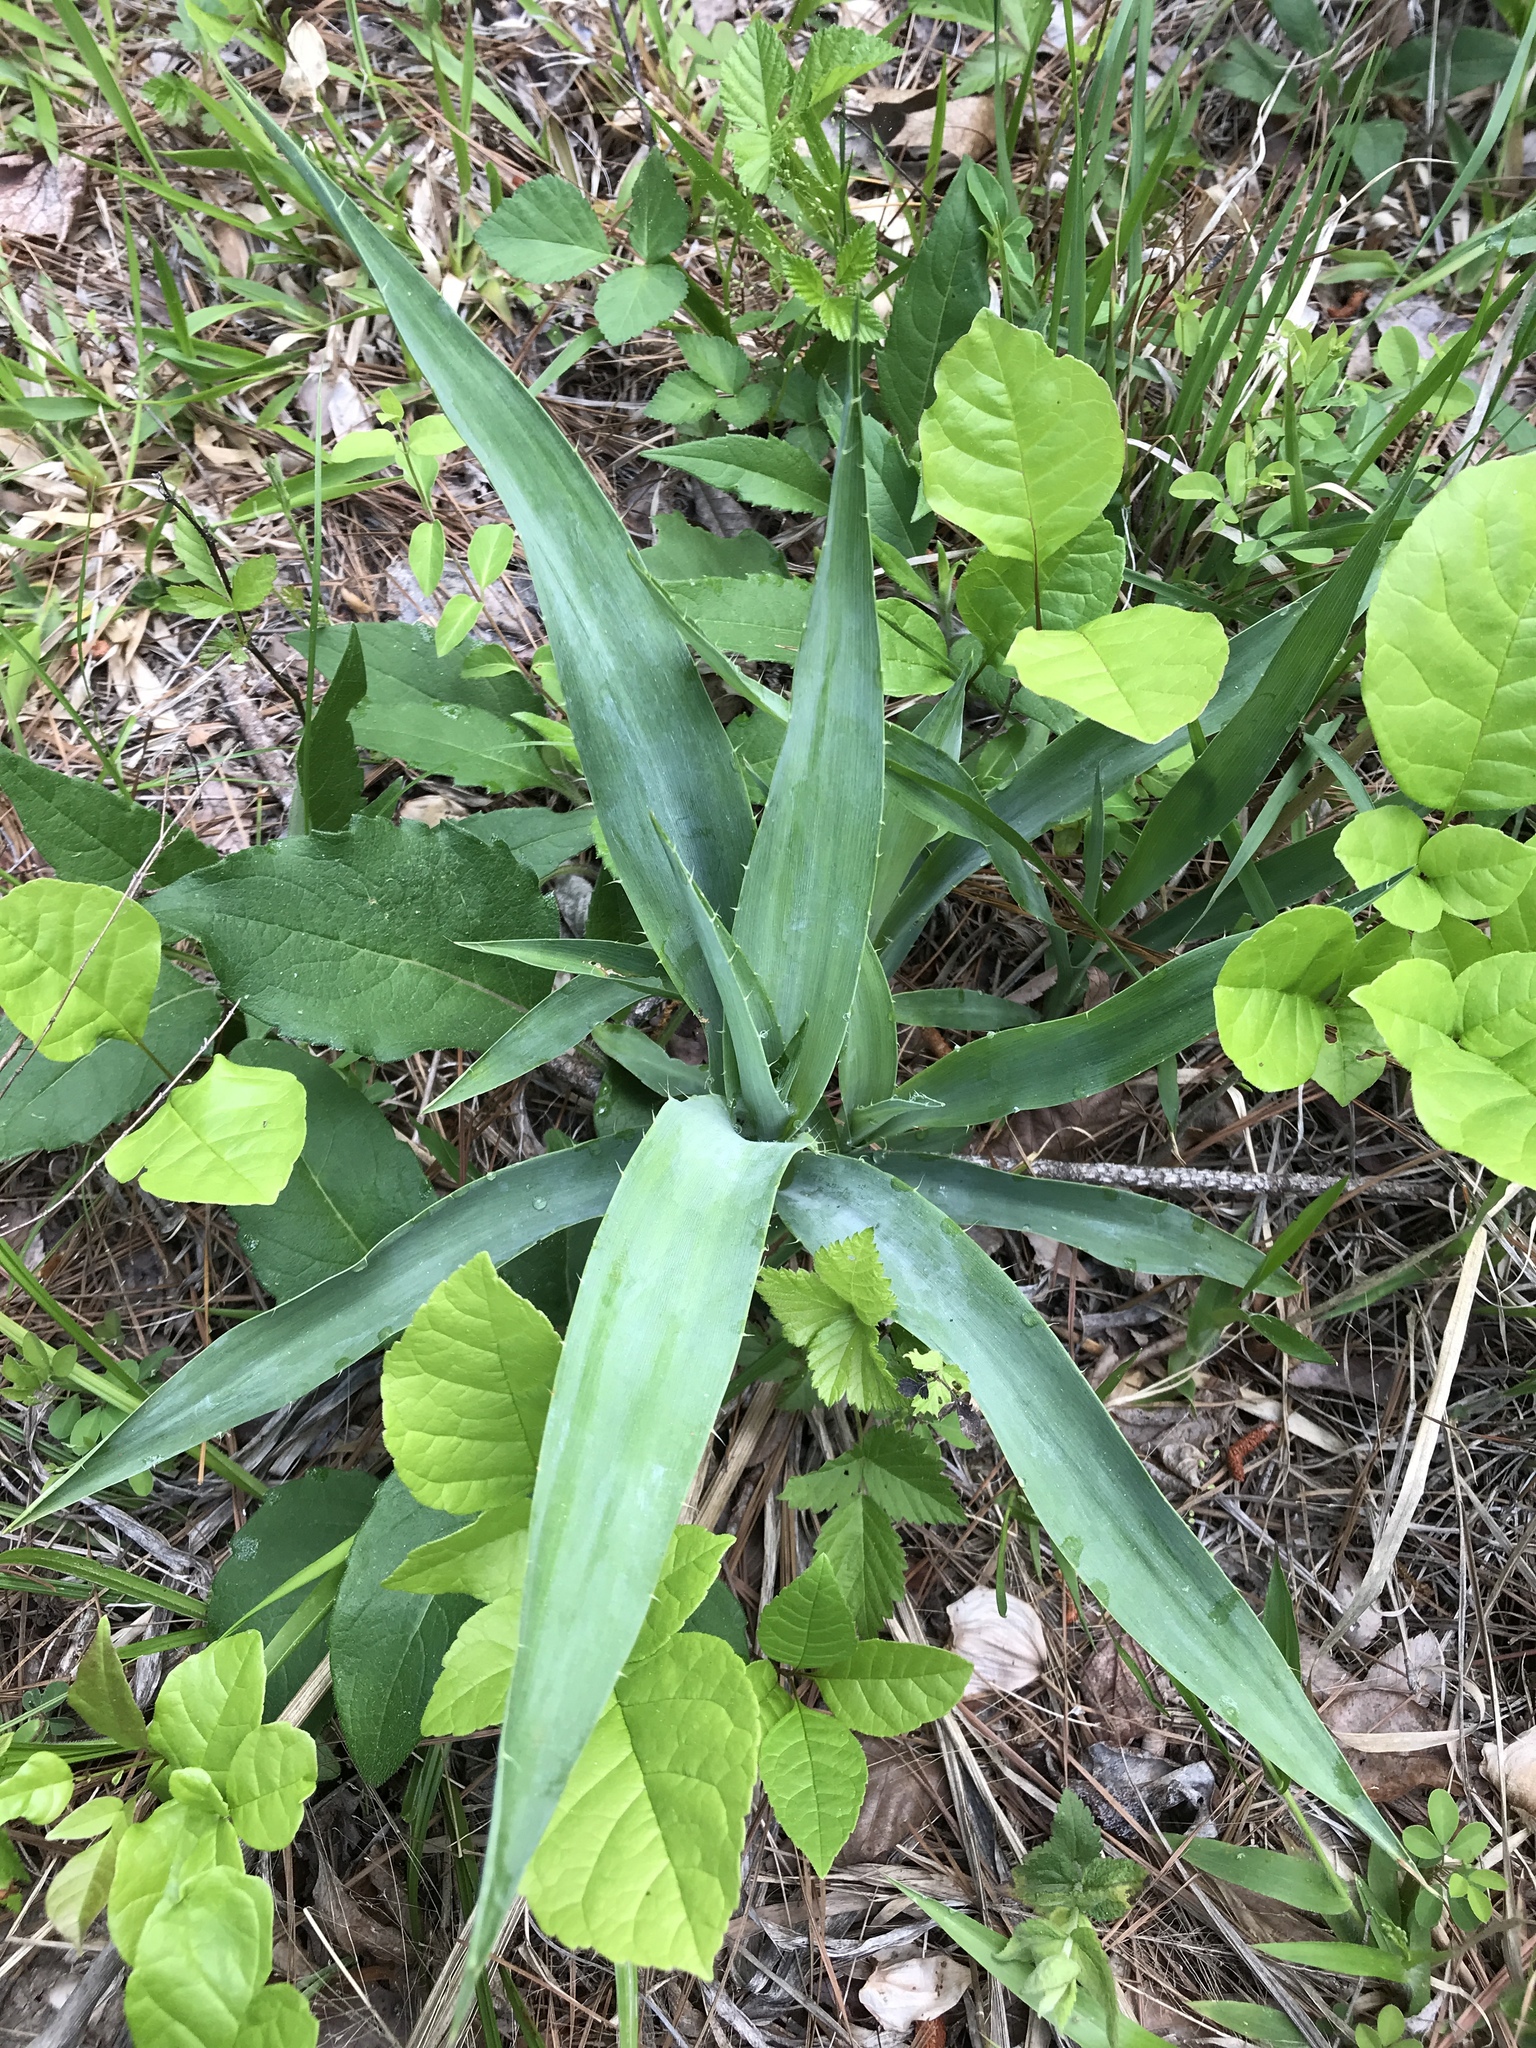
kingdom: Plantae
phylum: Tracheophyta
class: Magnoliopsida
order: Apiales
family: Apiaceae
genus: Eryngium
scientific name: Eryngium yuccifolium
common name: Button eryngo
